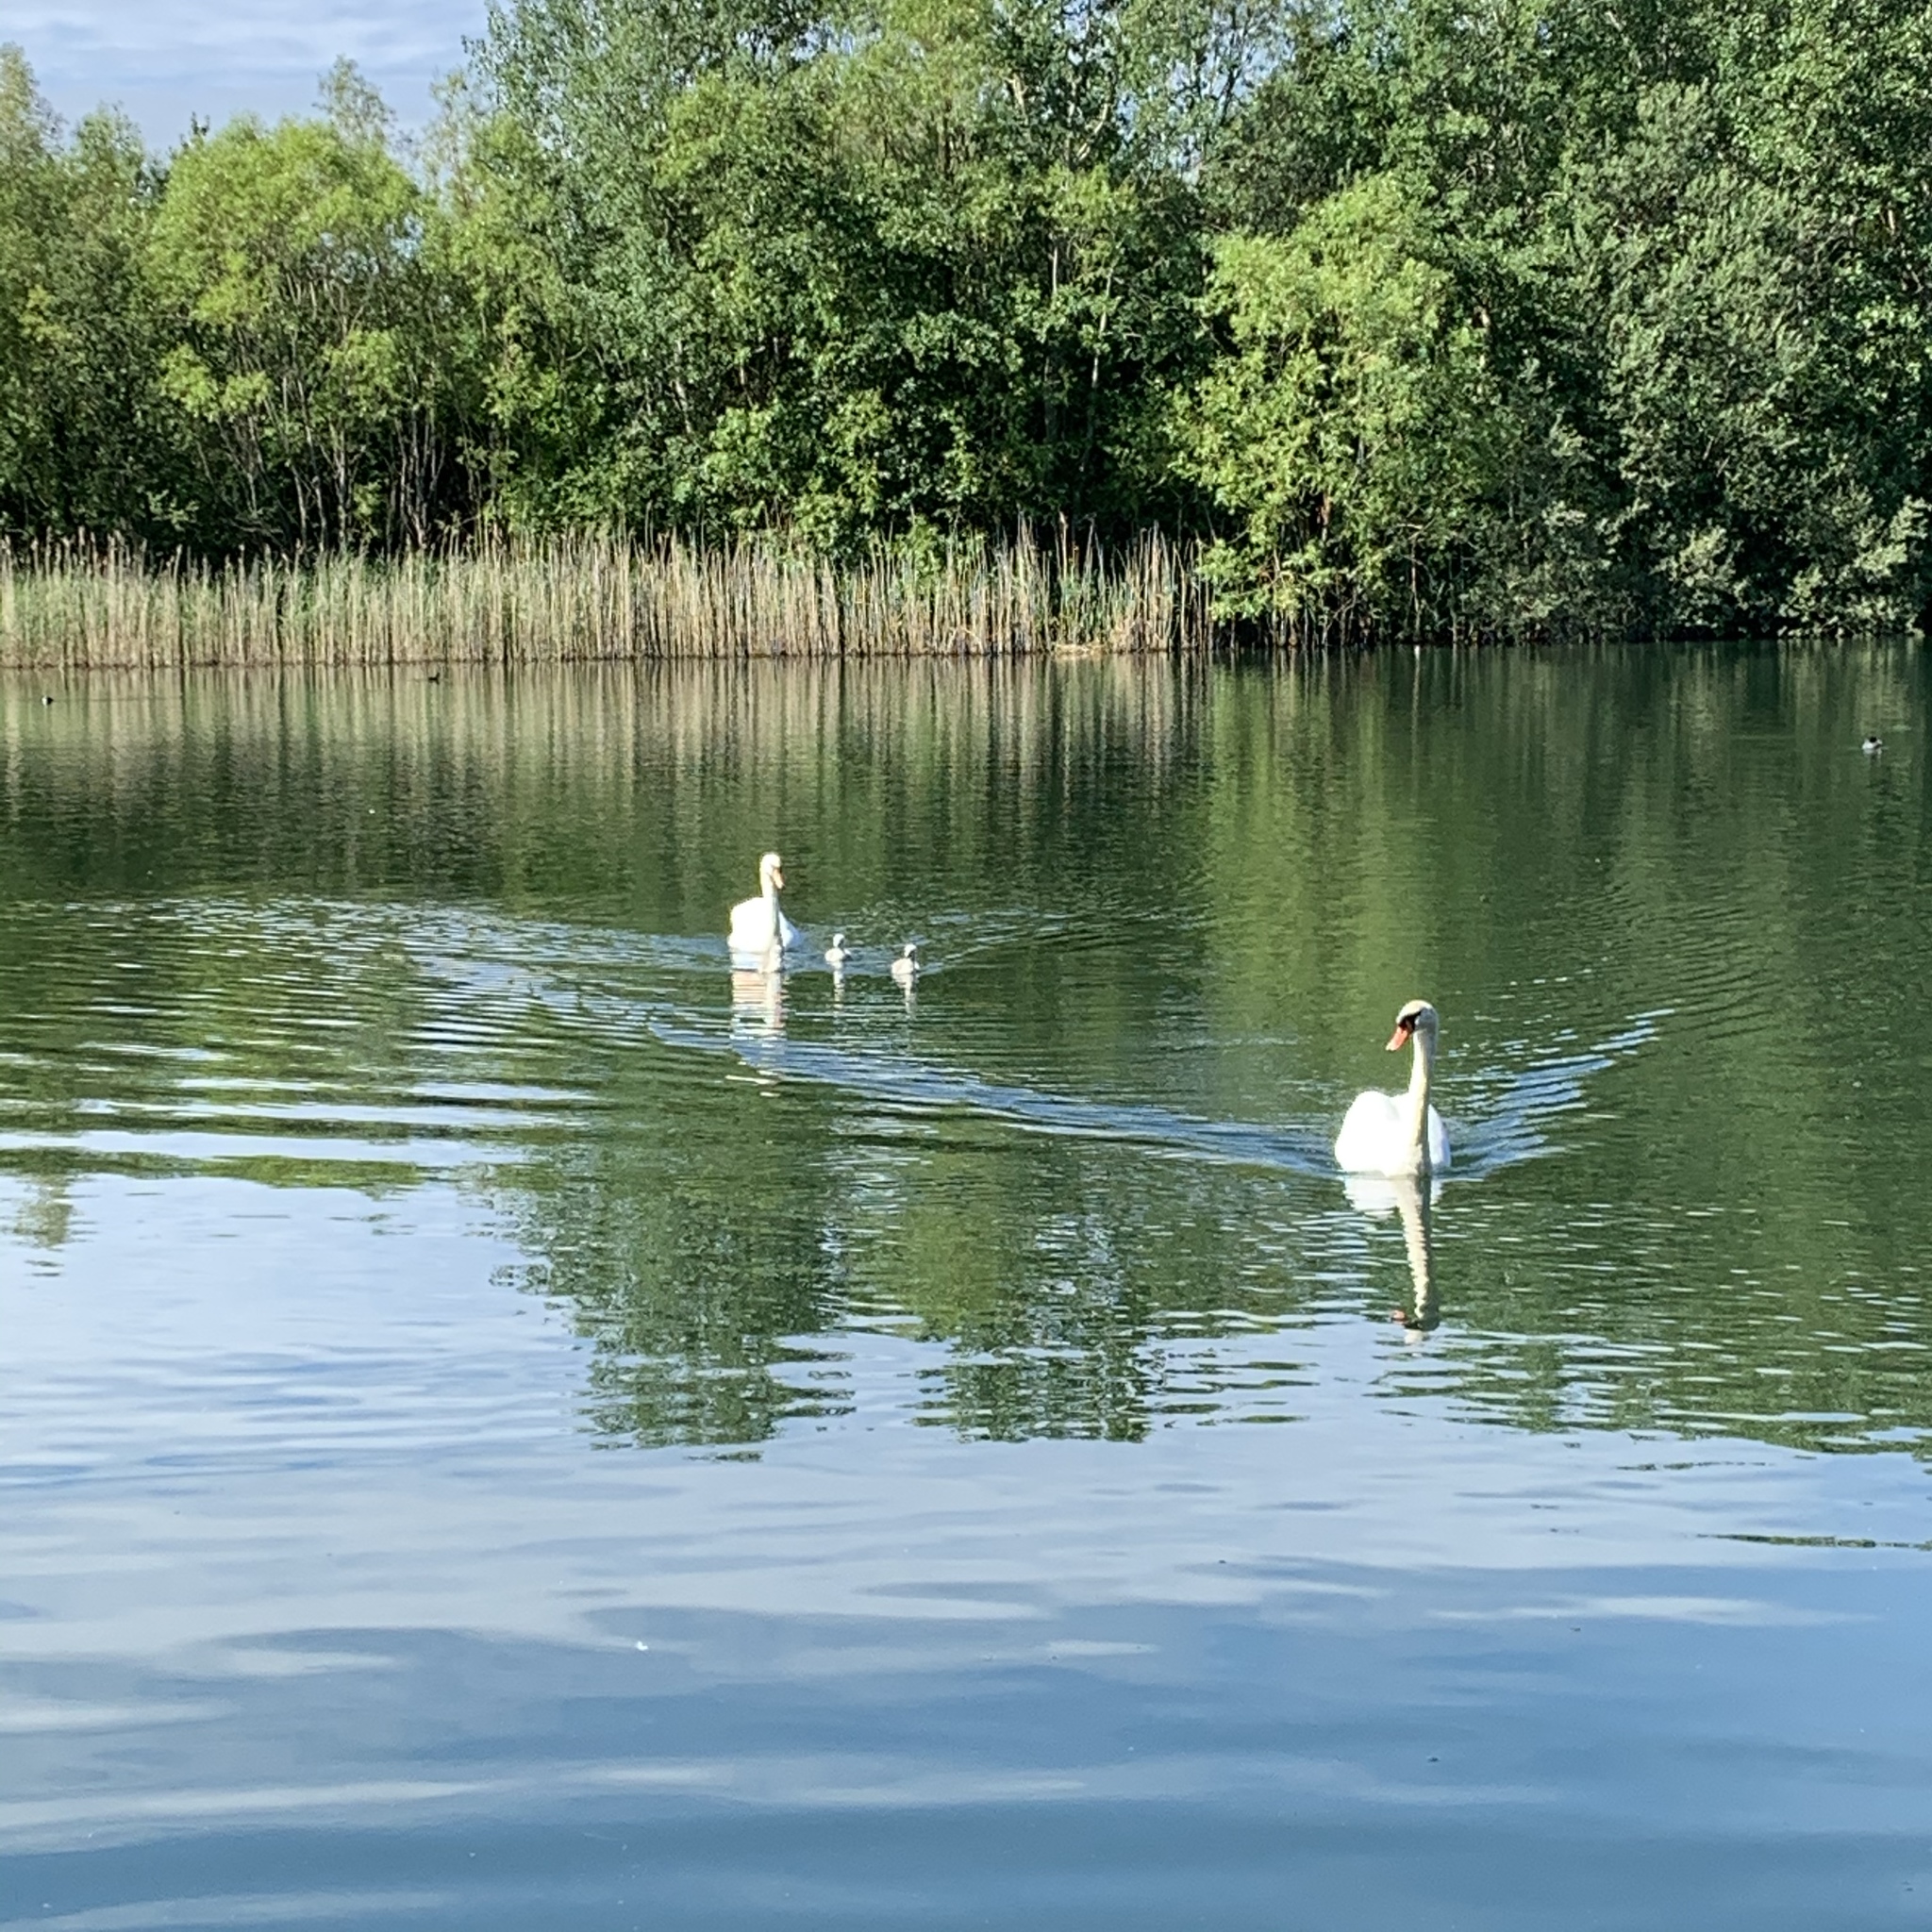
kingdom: Animalia
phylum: Chordata
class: Aves
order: Anseriformes
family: Anatidae
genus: Cygnus
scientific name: Cygnus olor
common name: Mute swan
